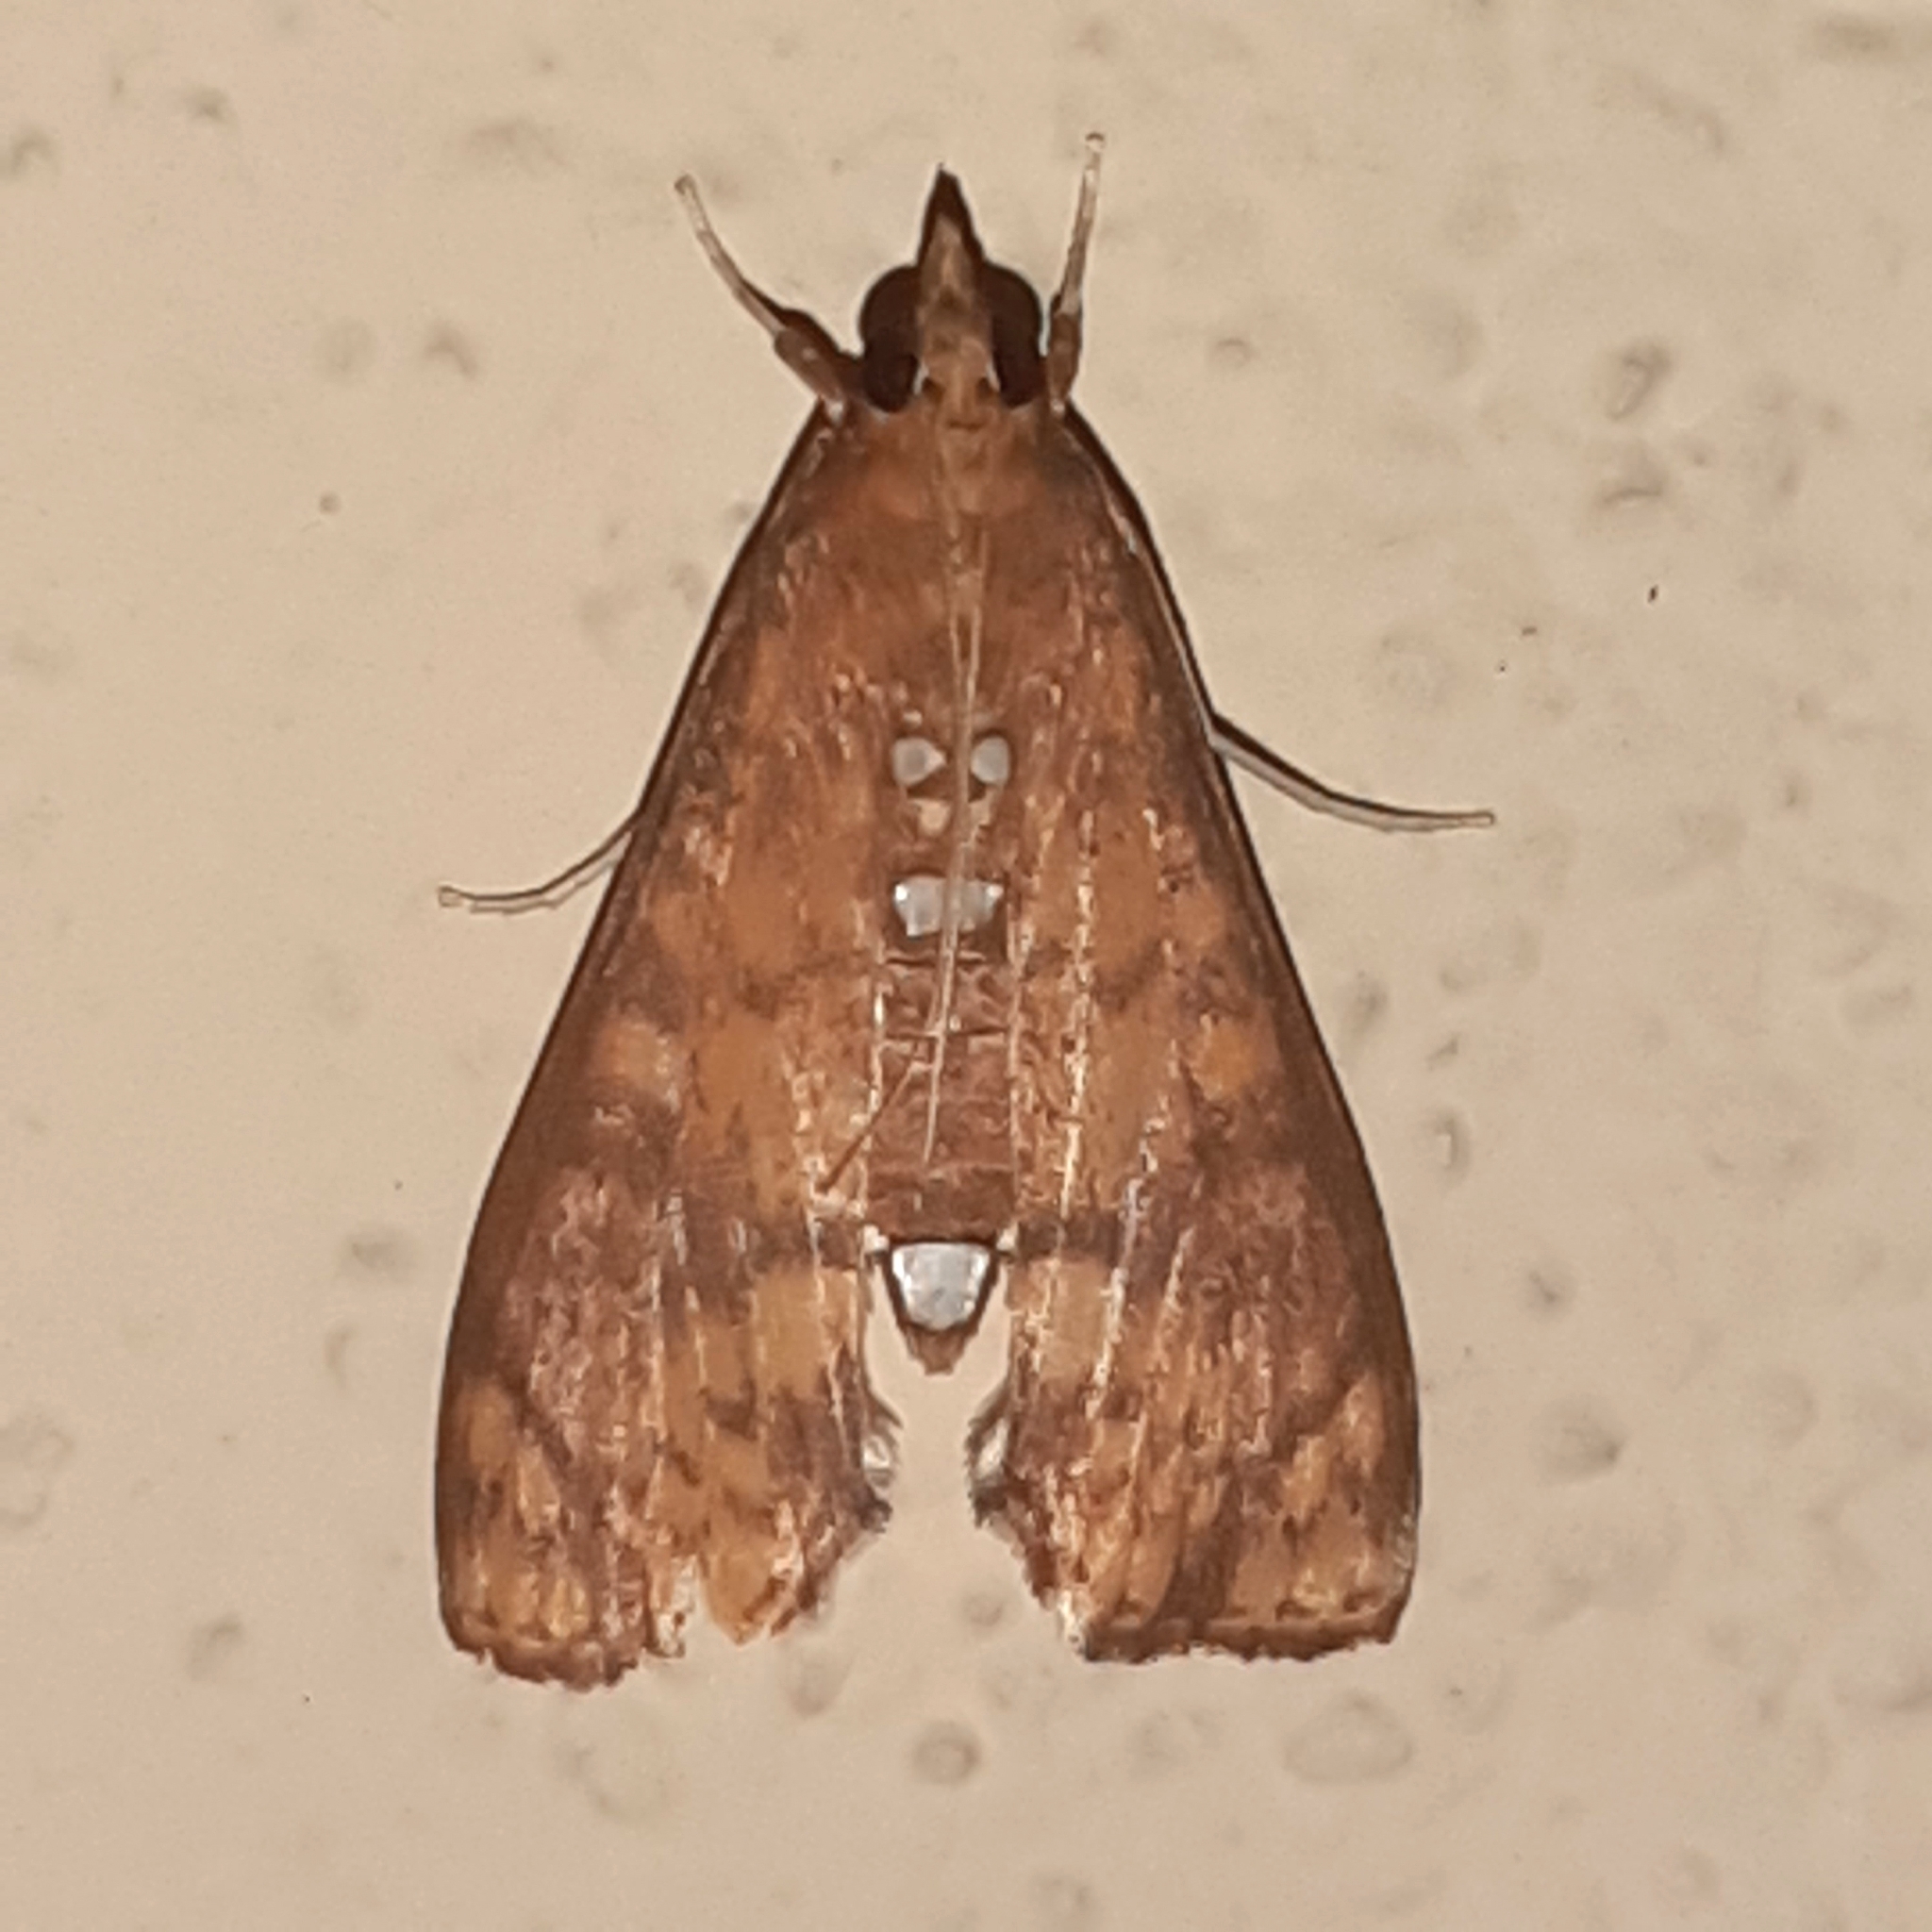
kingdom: Animalia
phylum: Arthropoda
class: Insecta
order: Lepidoptera
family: Crambidae
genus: Liopasia
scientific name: Liopasia ochracealis
